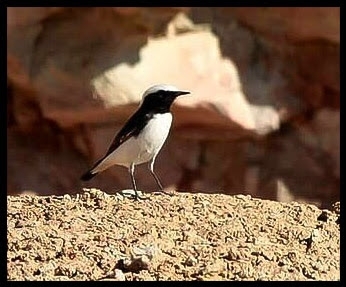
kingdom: Animalia
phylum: Chordata
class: Aves
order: Passeriformes
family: Muscicapidae
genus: Oenanthe
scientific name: Oenanthe lugens
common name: Mourning wheatear
